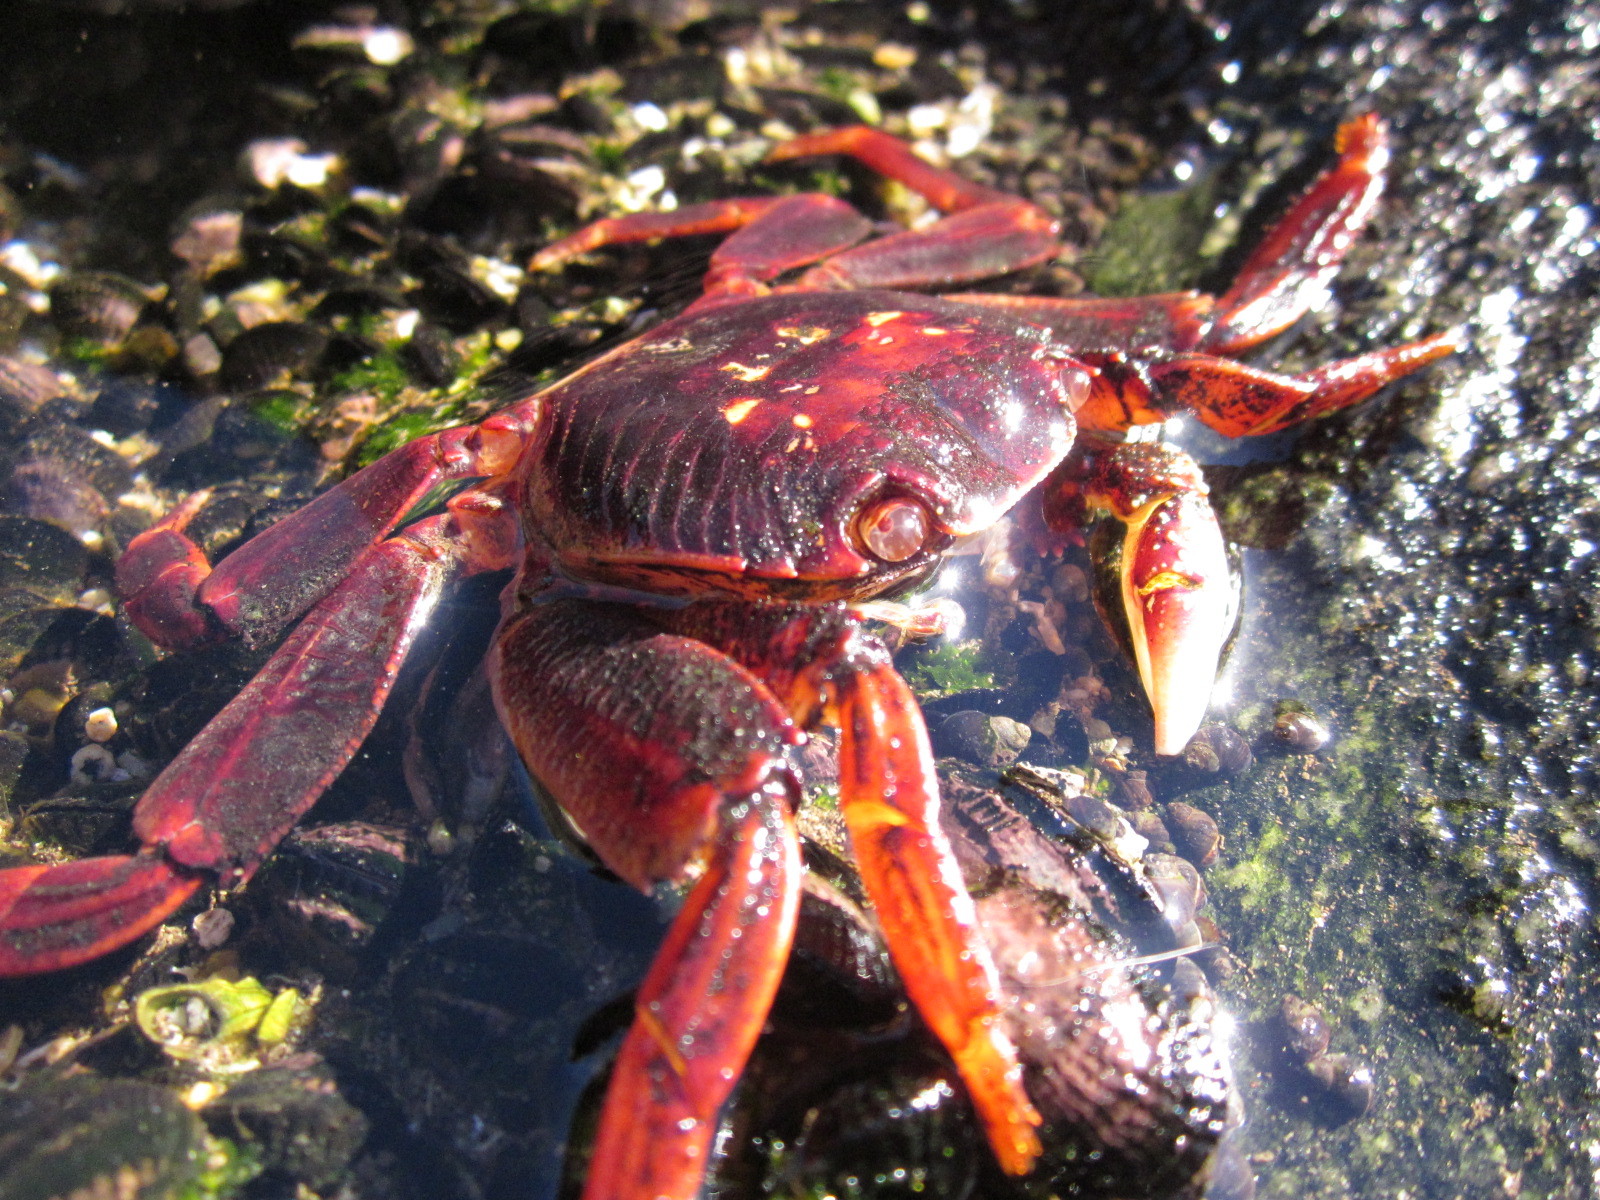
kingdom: Animalia
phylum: Arthropoda
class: Malacostraca
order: Decapoda
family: Grapsidae
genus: Leptograpsus
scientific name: Leptograpsus variegatus
